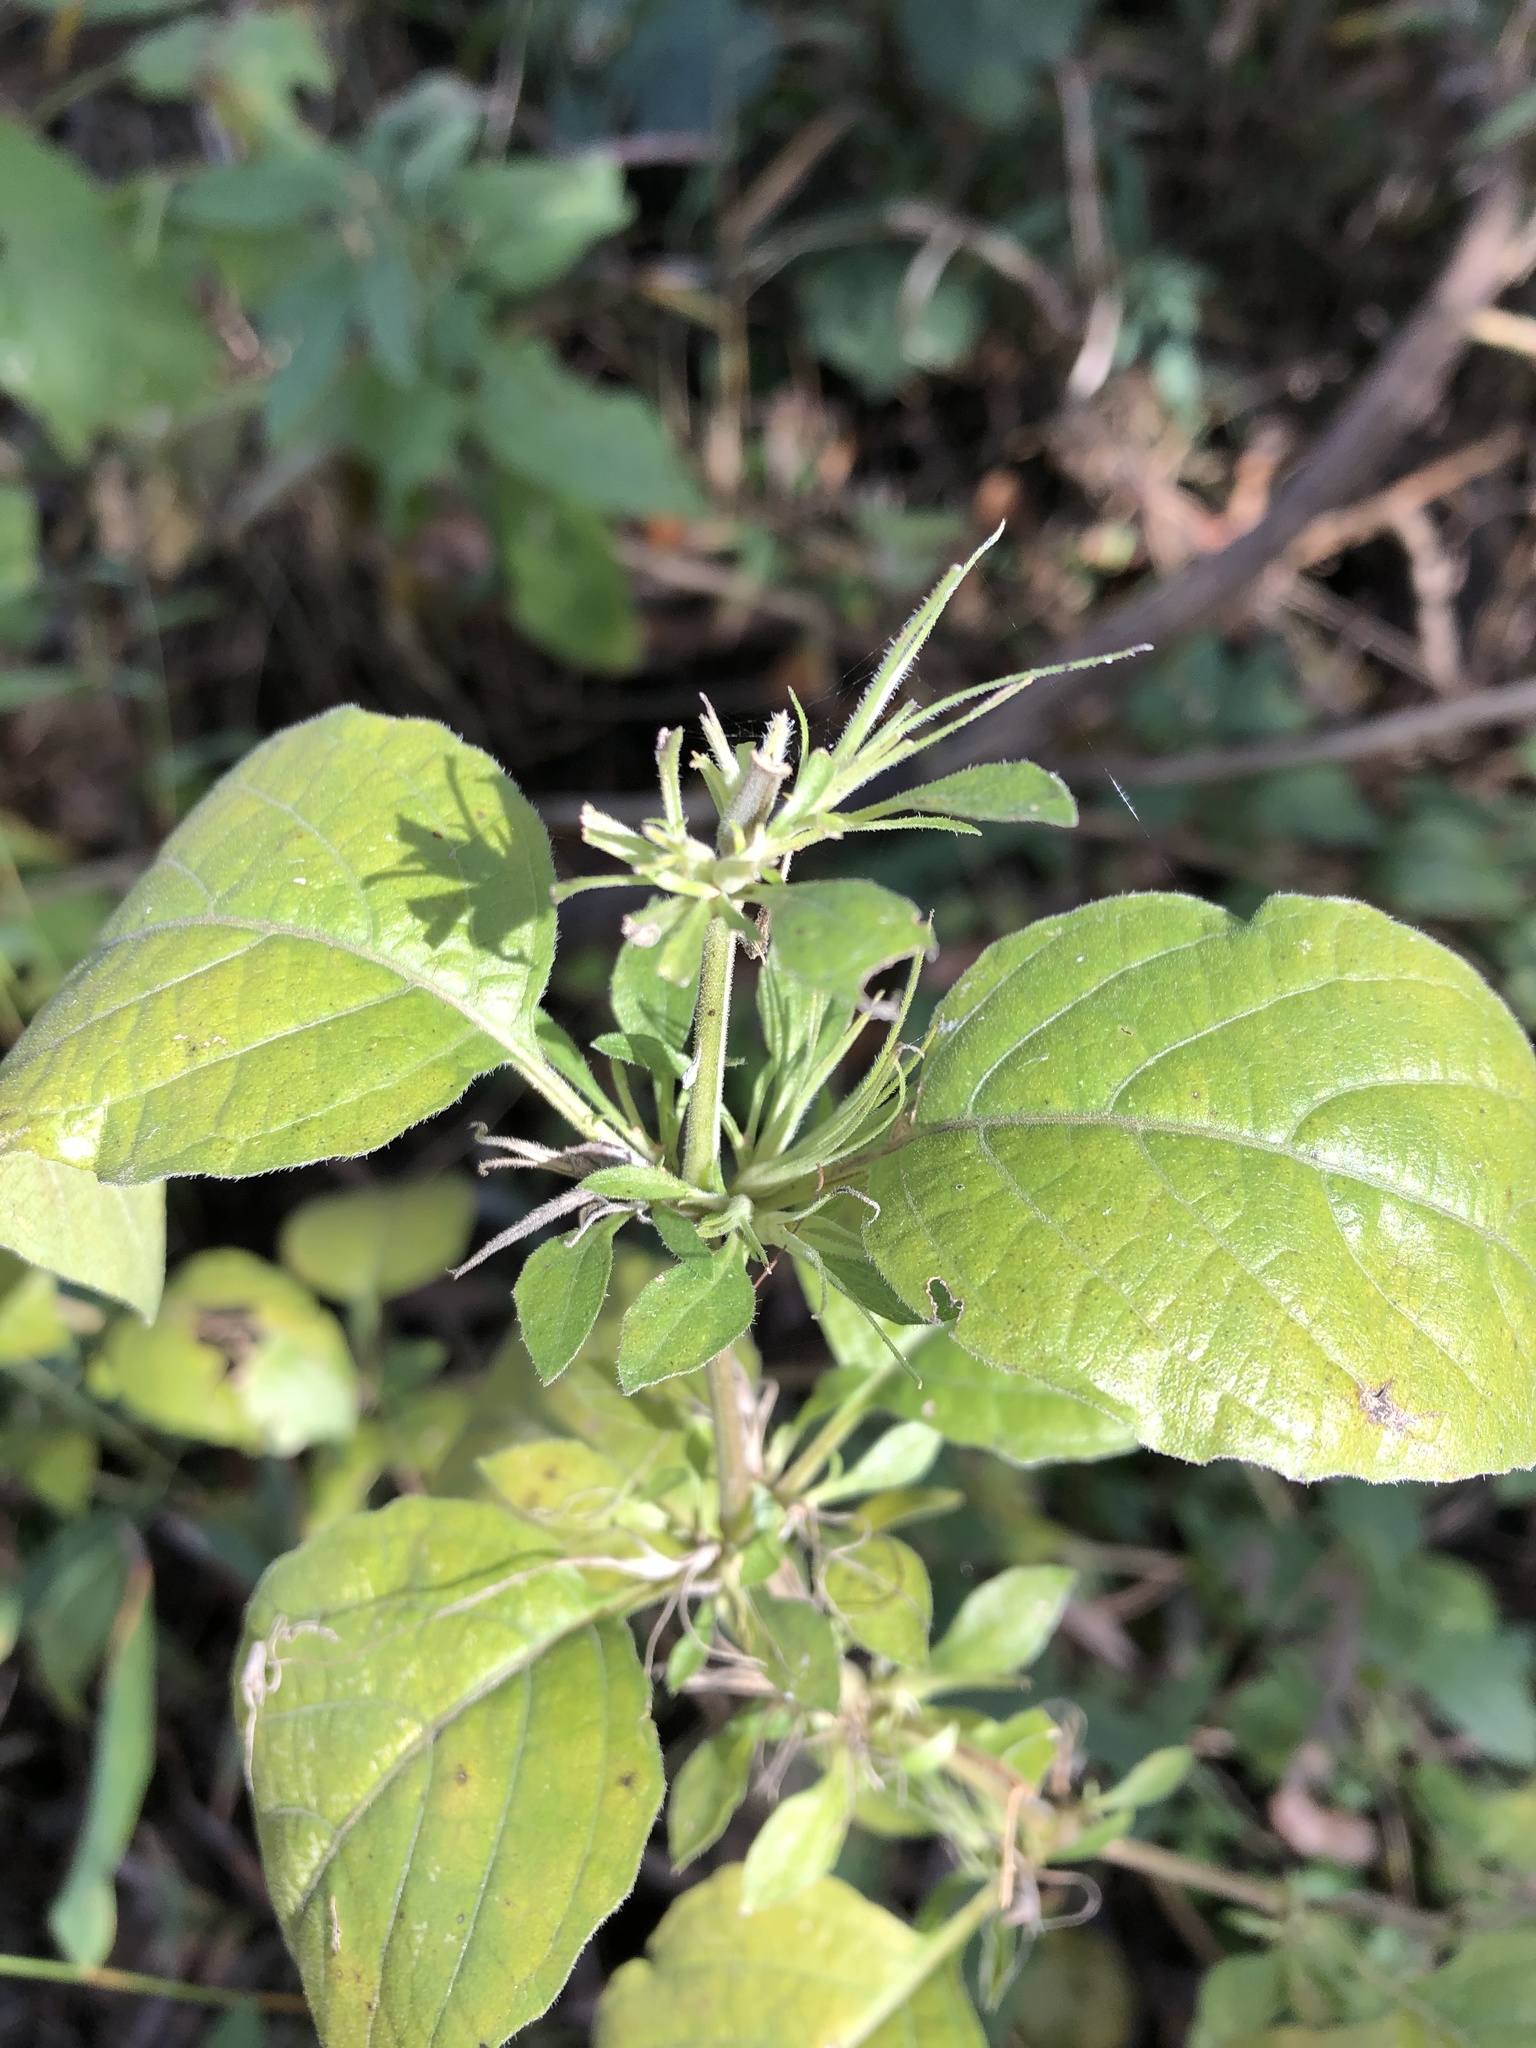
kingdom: Plantae
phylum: Tracheophyta
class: Magnoliopsida
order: Lamiales
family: Acanthaceae
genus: Ruellia
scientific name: Ruellia drummondiana
